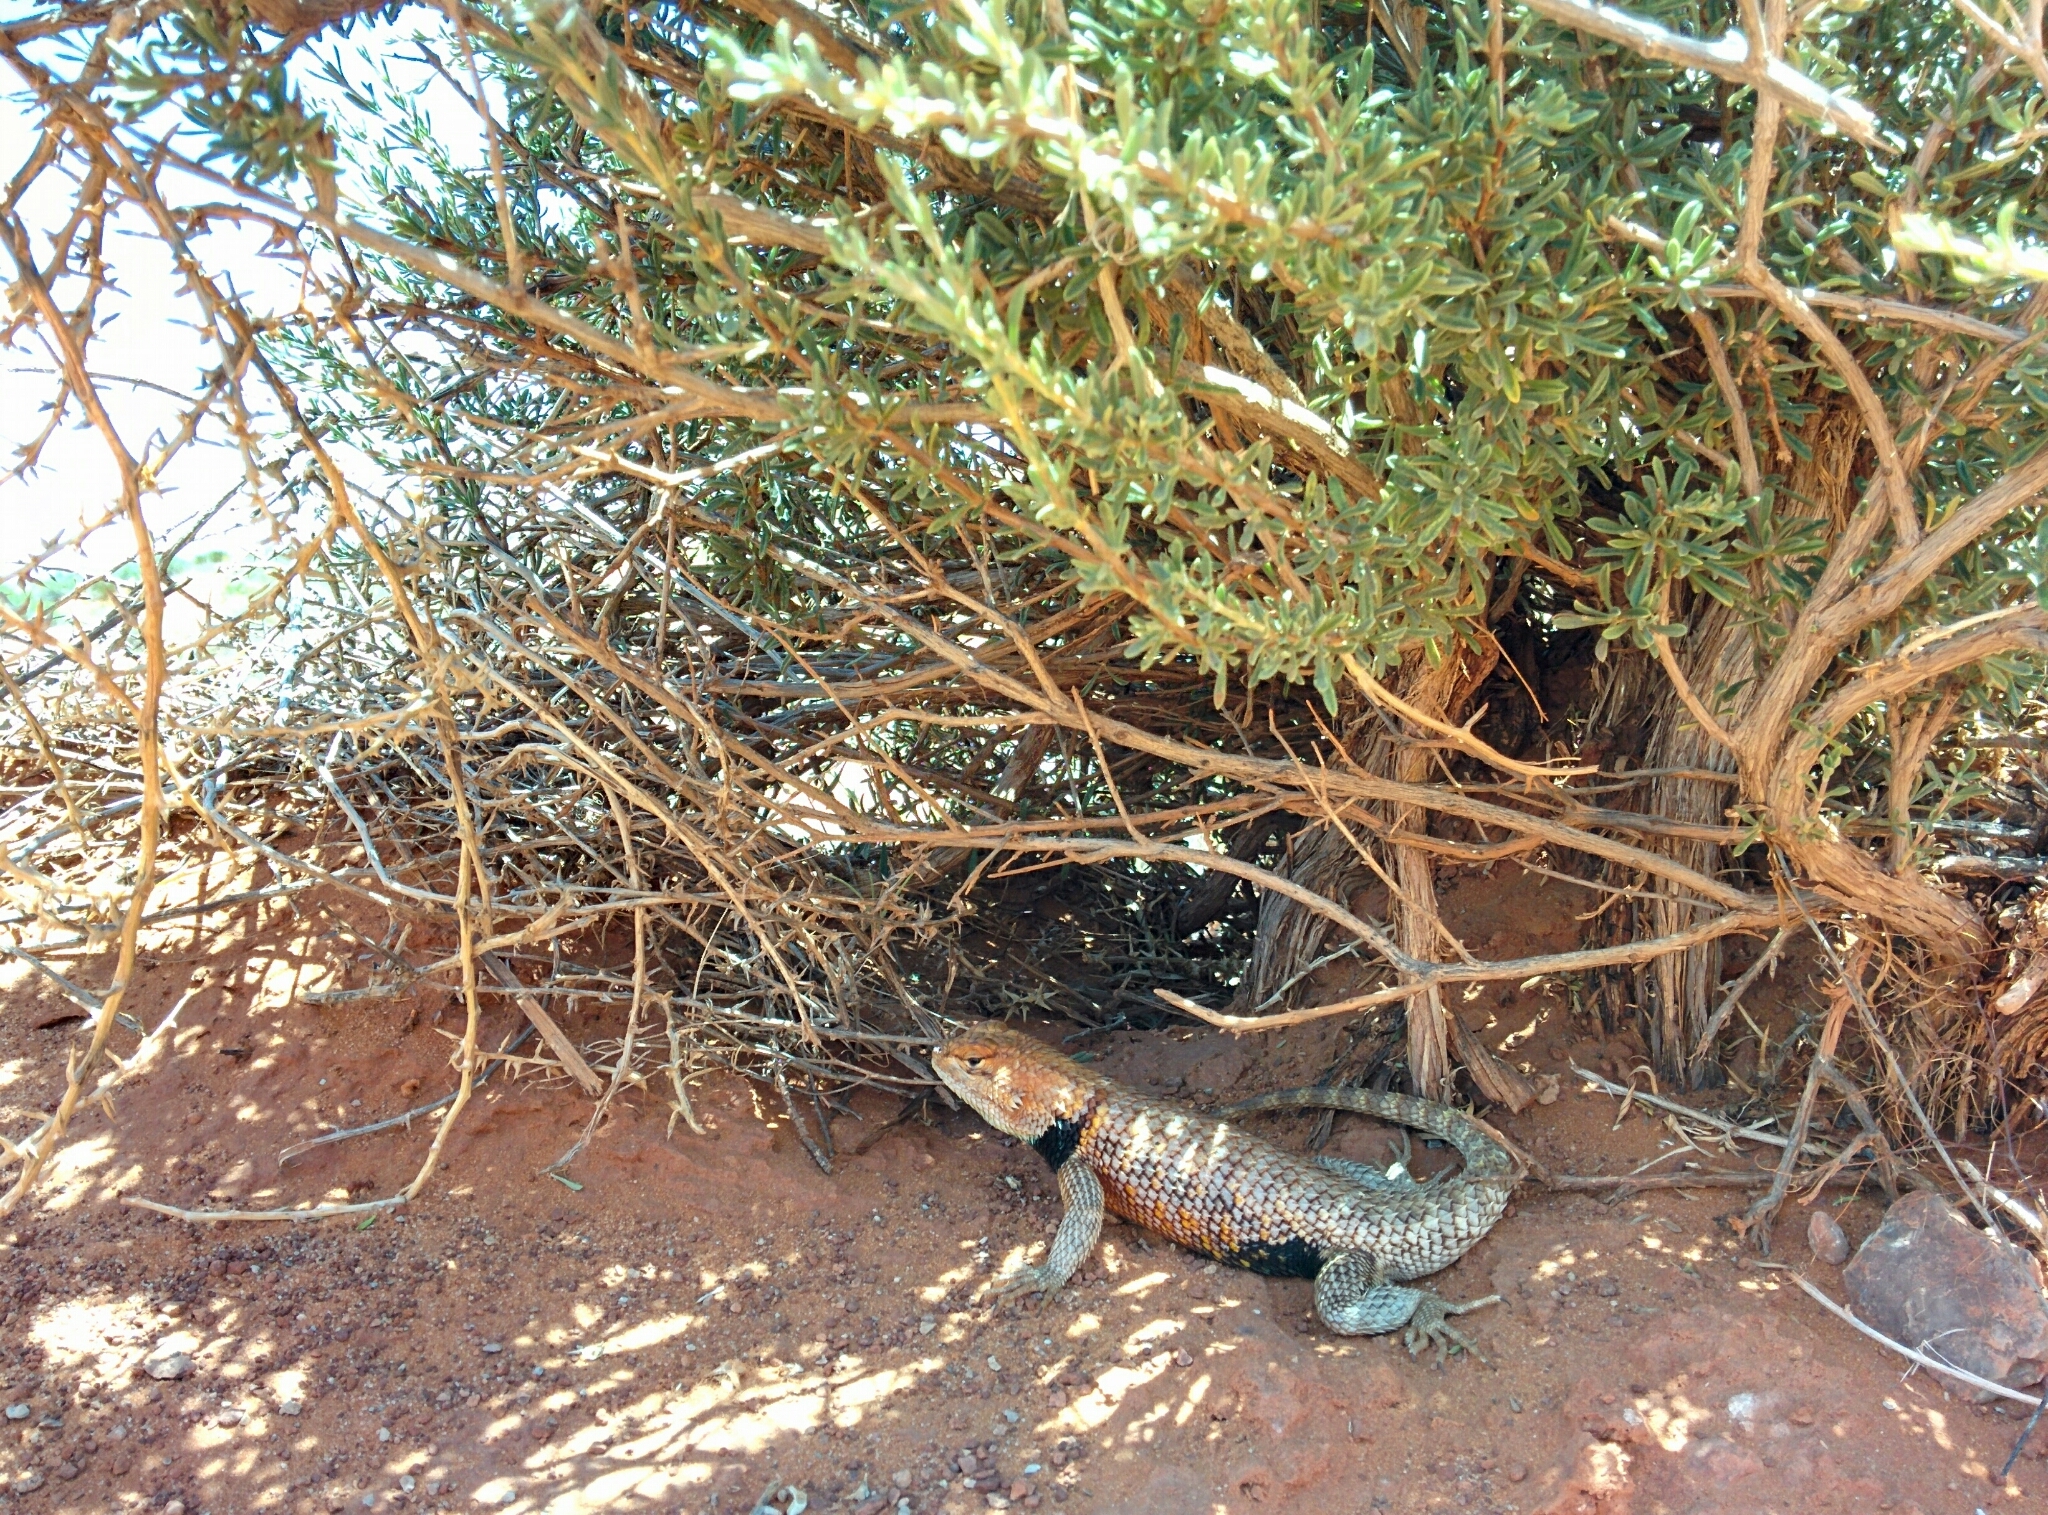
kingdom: Animalia
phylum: Chordata
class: Squamata
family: Phrynosomatidae
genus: Sceloporus
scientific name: Sceloporus magister
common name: Desert spiny lizard
